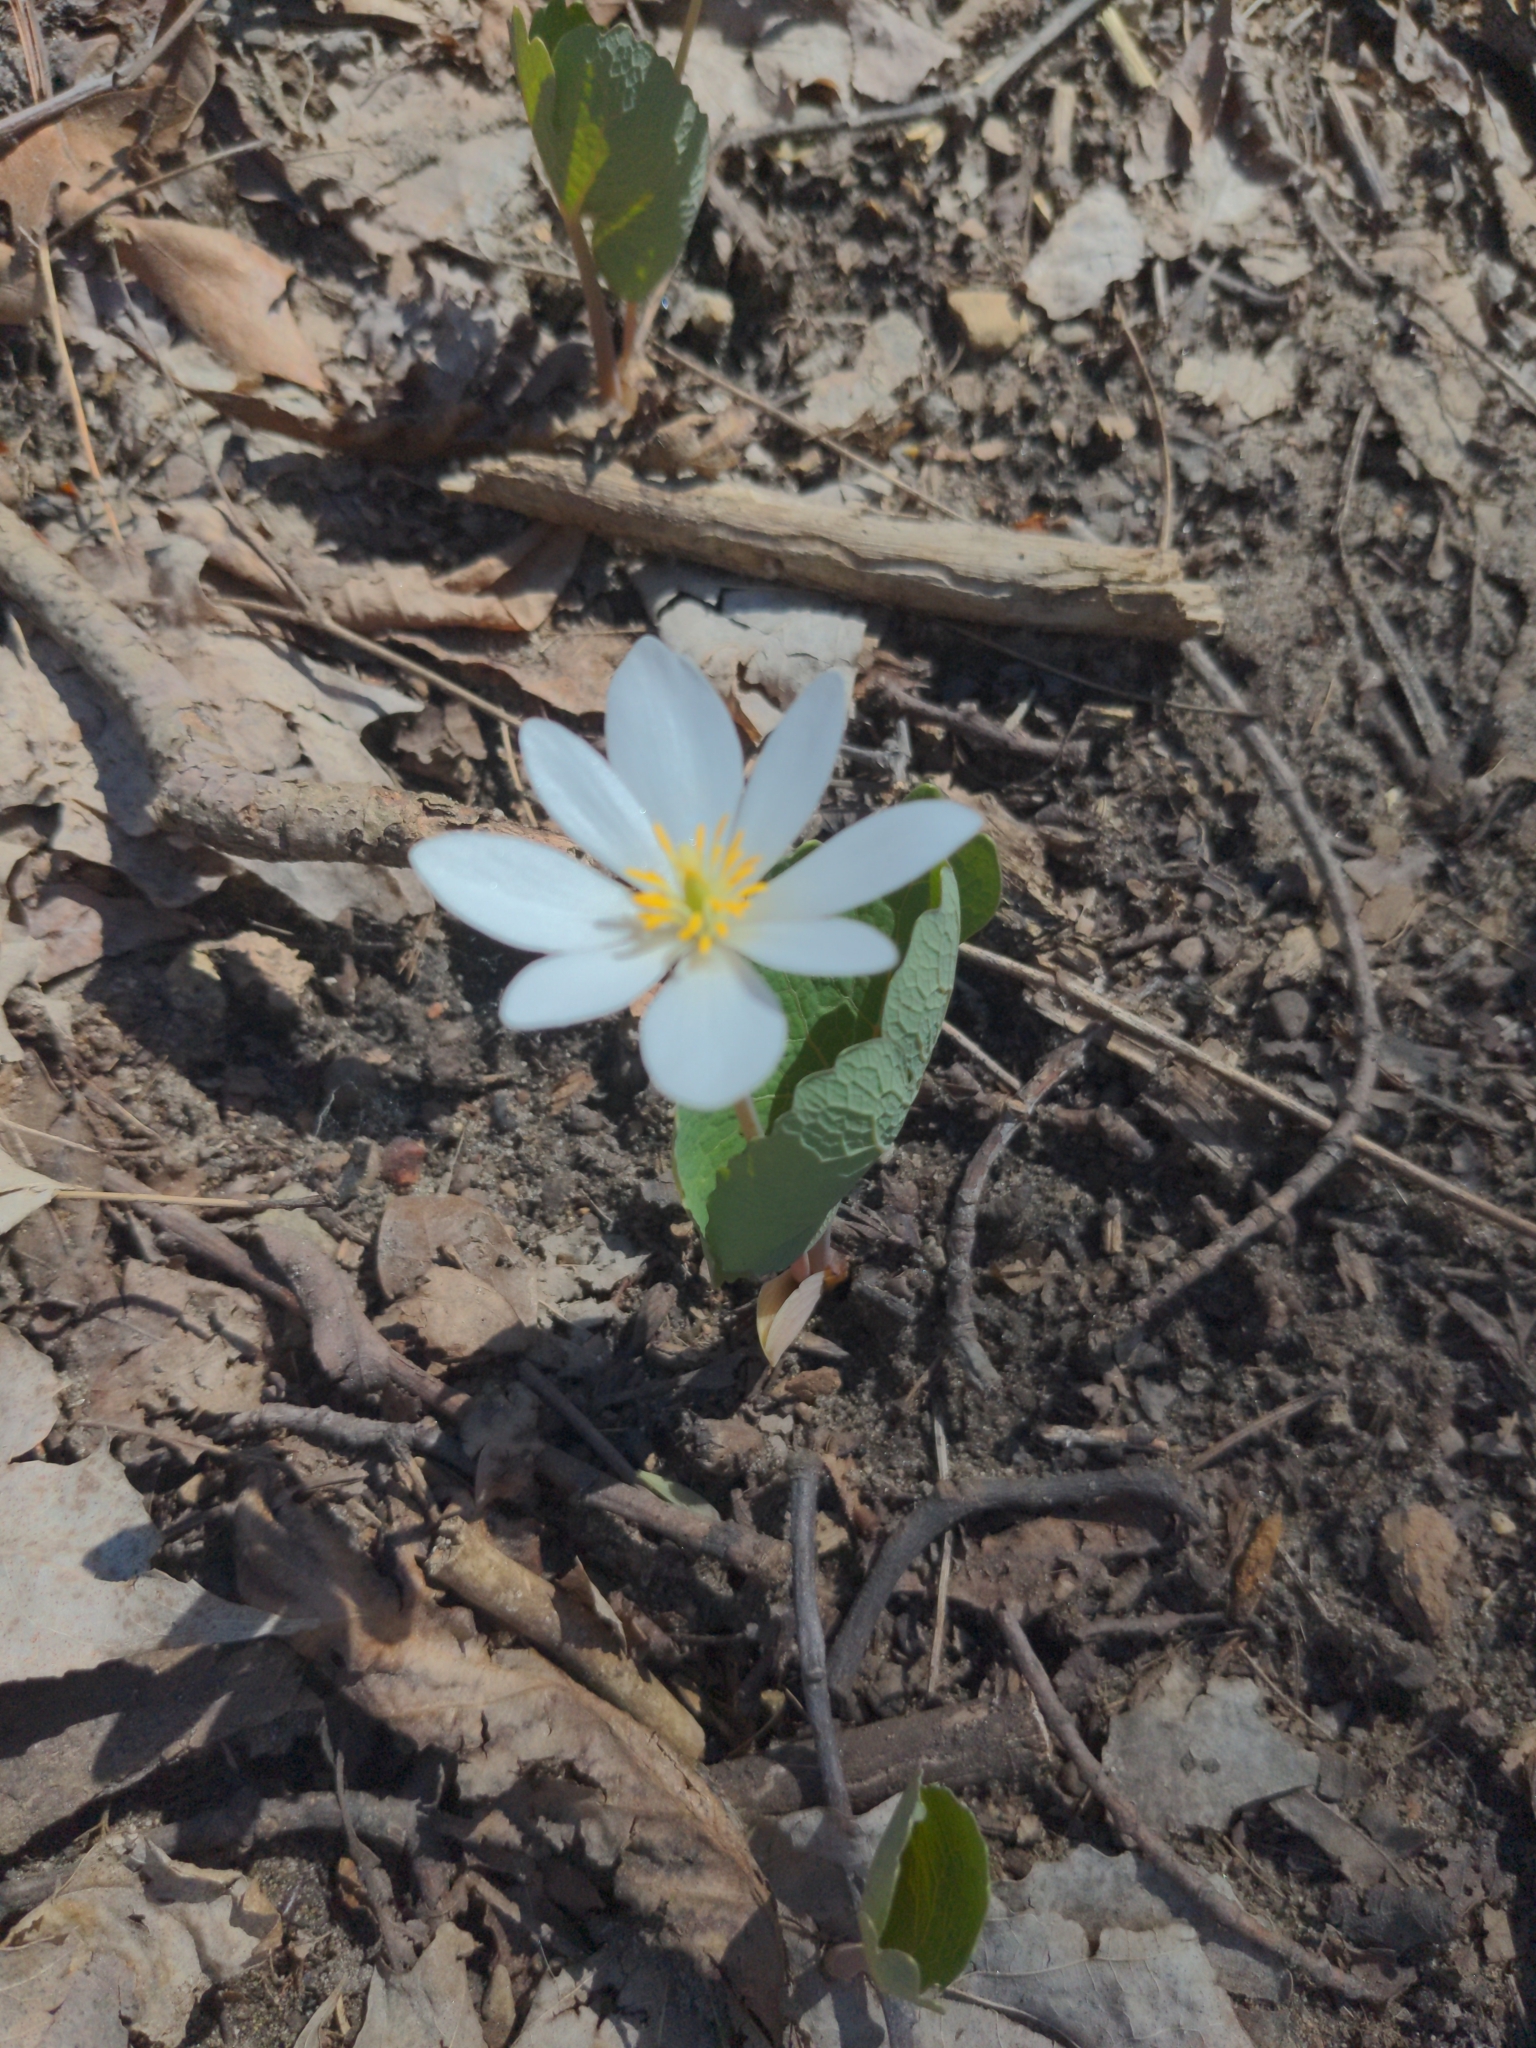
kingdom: Plantae
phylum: Tracheophyta
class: Magnoliopsida
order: Ranunculales
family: Papaveraceae
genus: Sanguinaria
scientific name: Sanguinaria canadensis
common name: Bloodroot
